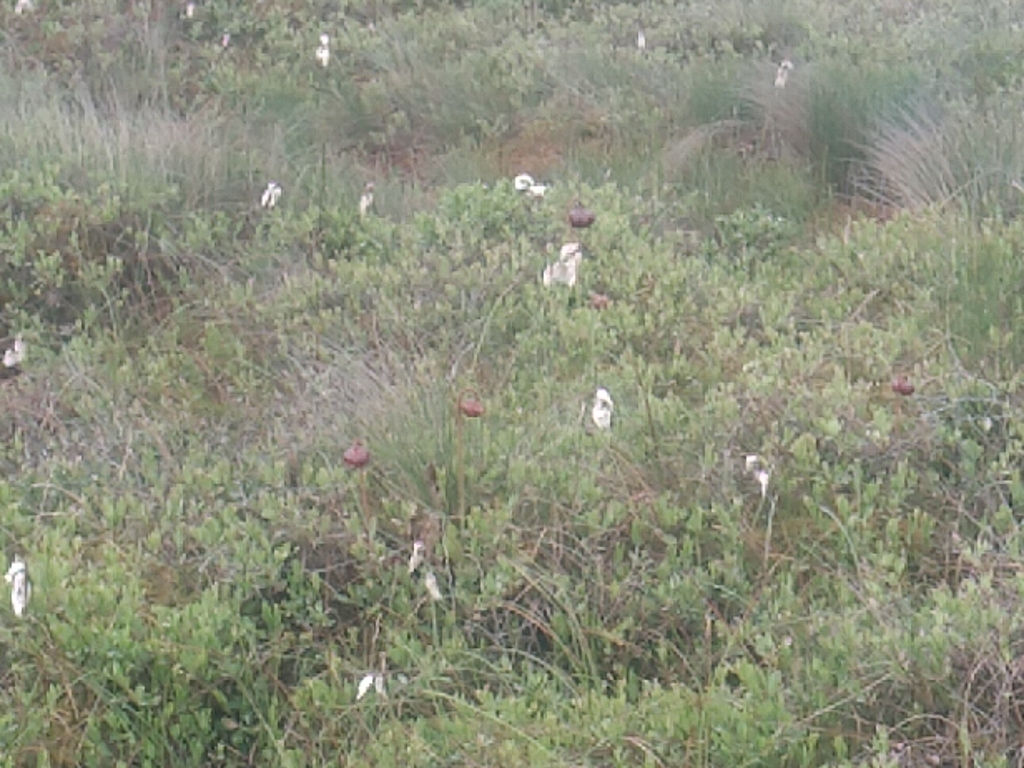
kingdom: Plantae
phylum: Tracheophyta
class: Magnoliopsida
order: Ericales
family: Sarraceniaceae
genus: Sarracenia
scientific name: Sarracenia purpurea
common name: Pitcherplant
